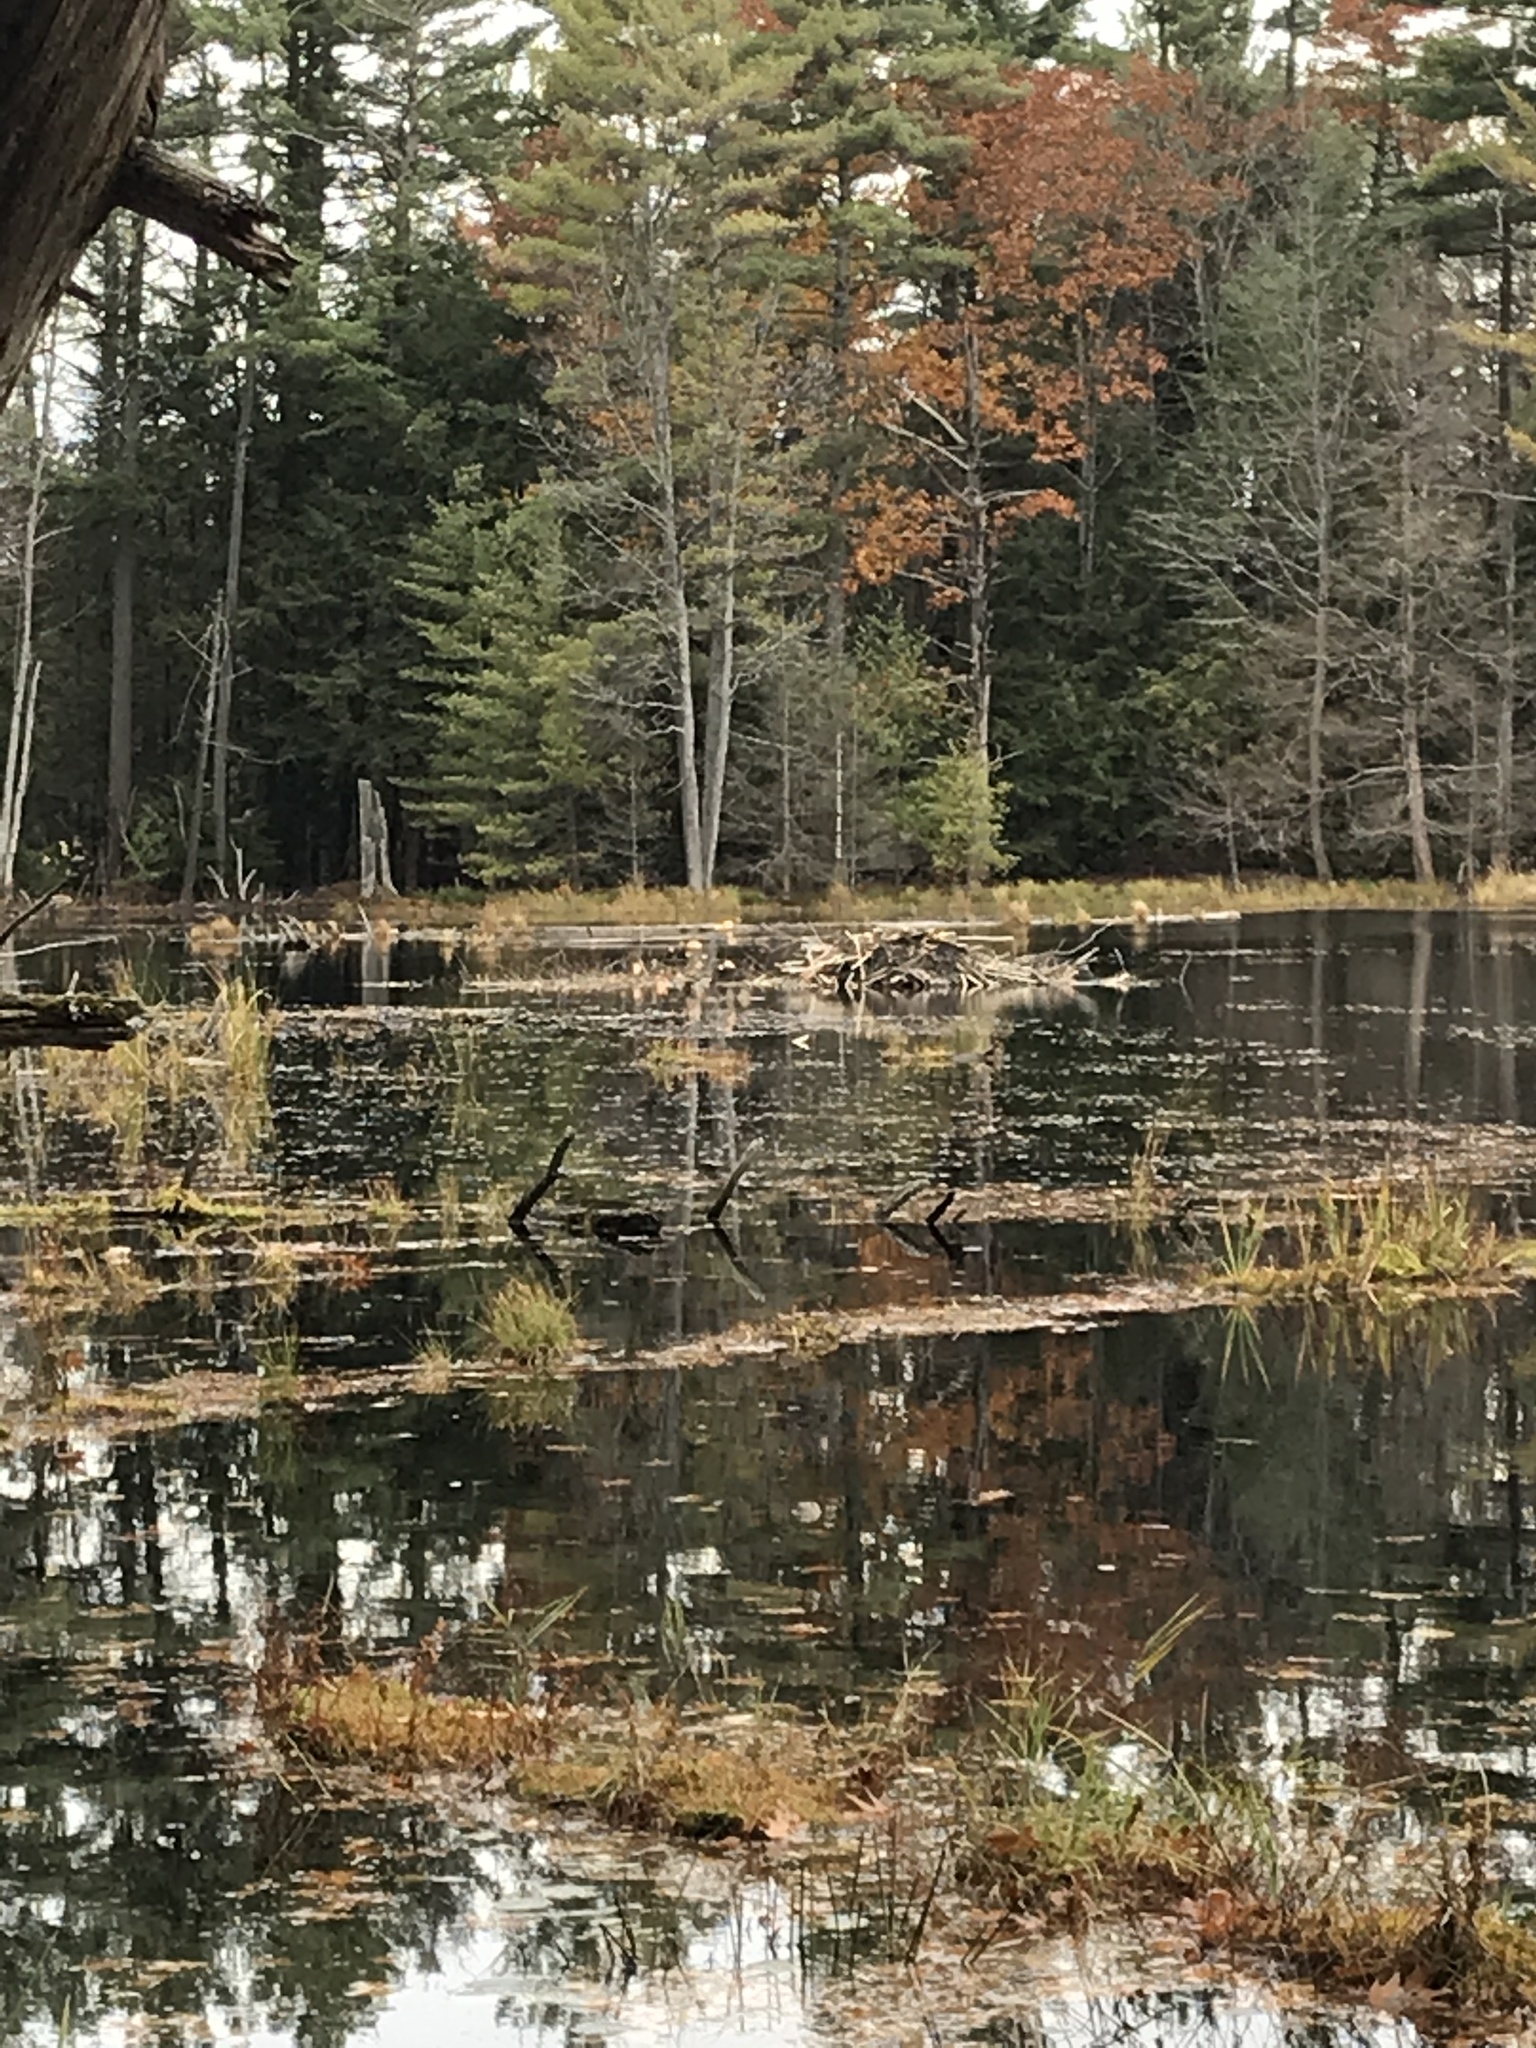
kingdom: Animalia
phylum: Chordata
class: Mammalia
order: Rodentia
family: Castoridae
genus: Castor
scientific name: Castor canadensis
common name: American beaver
